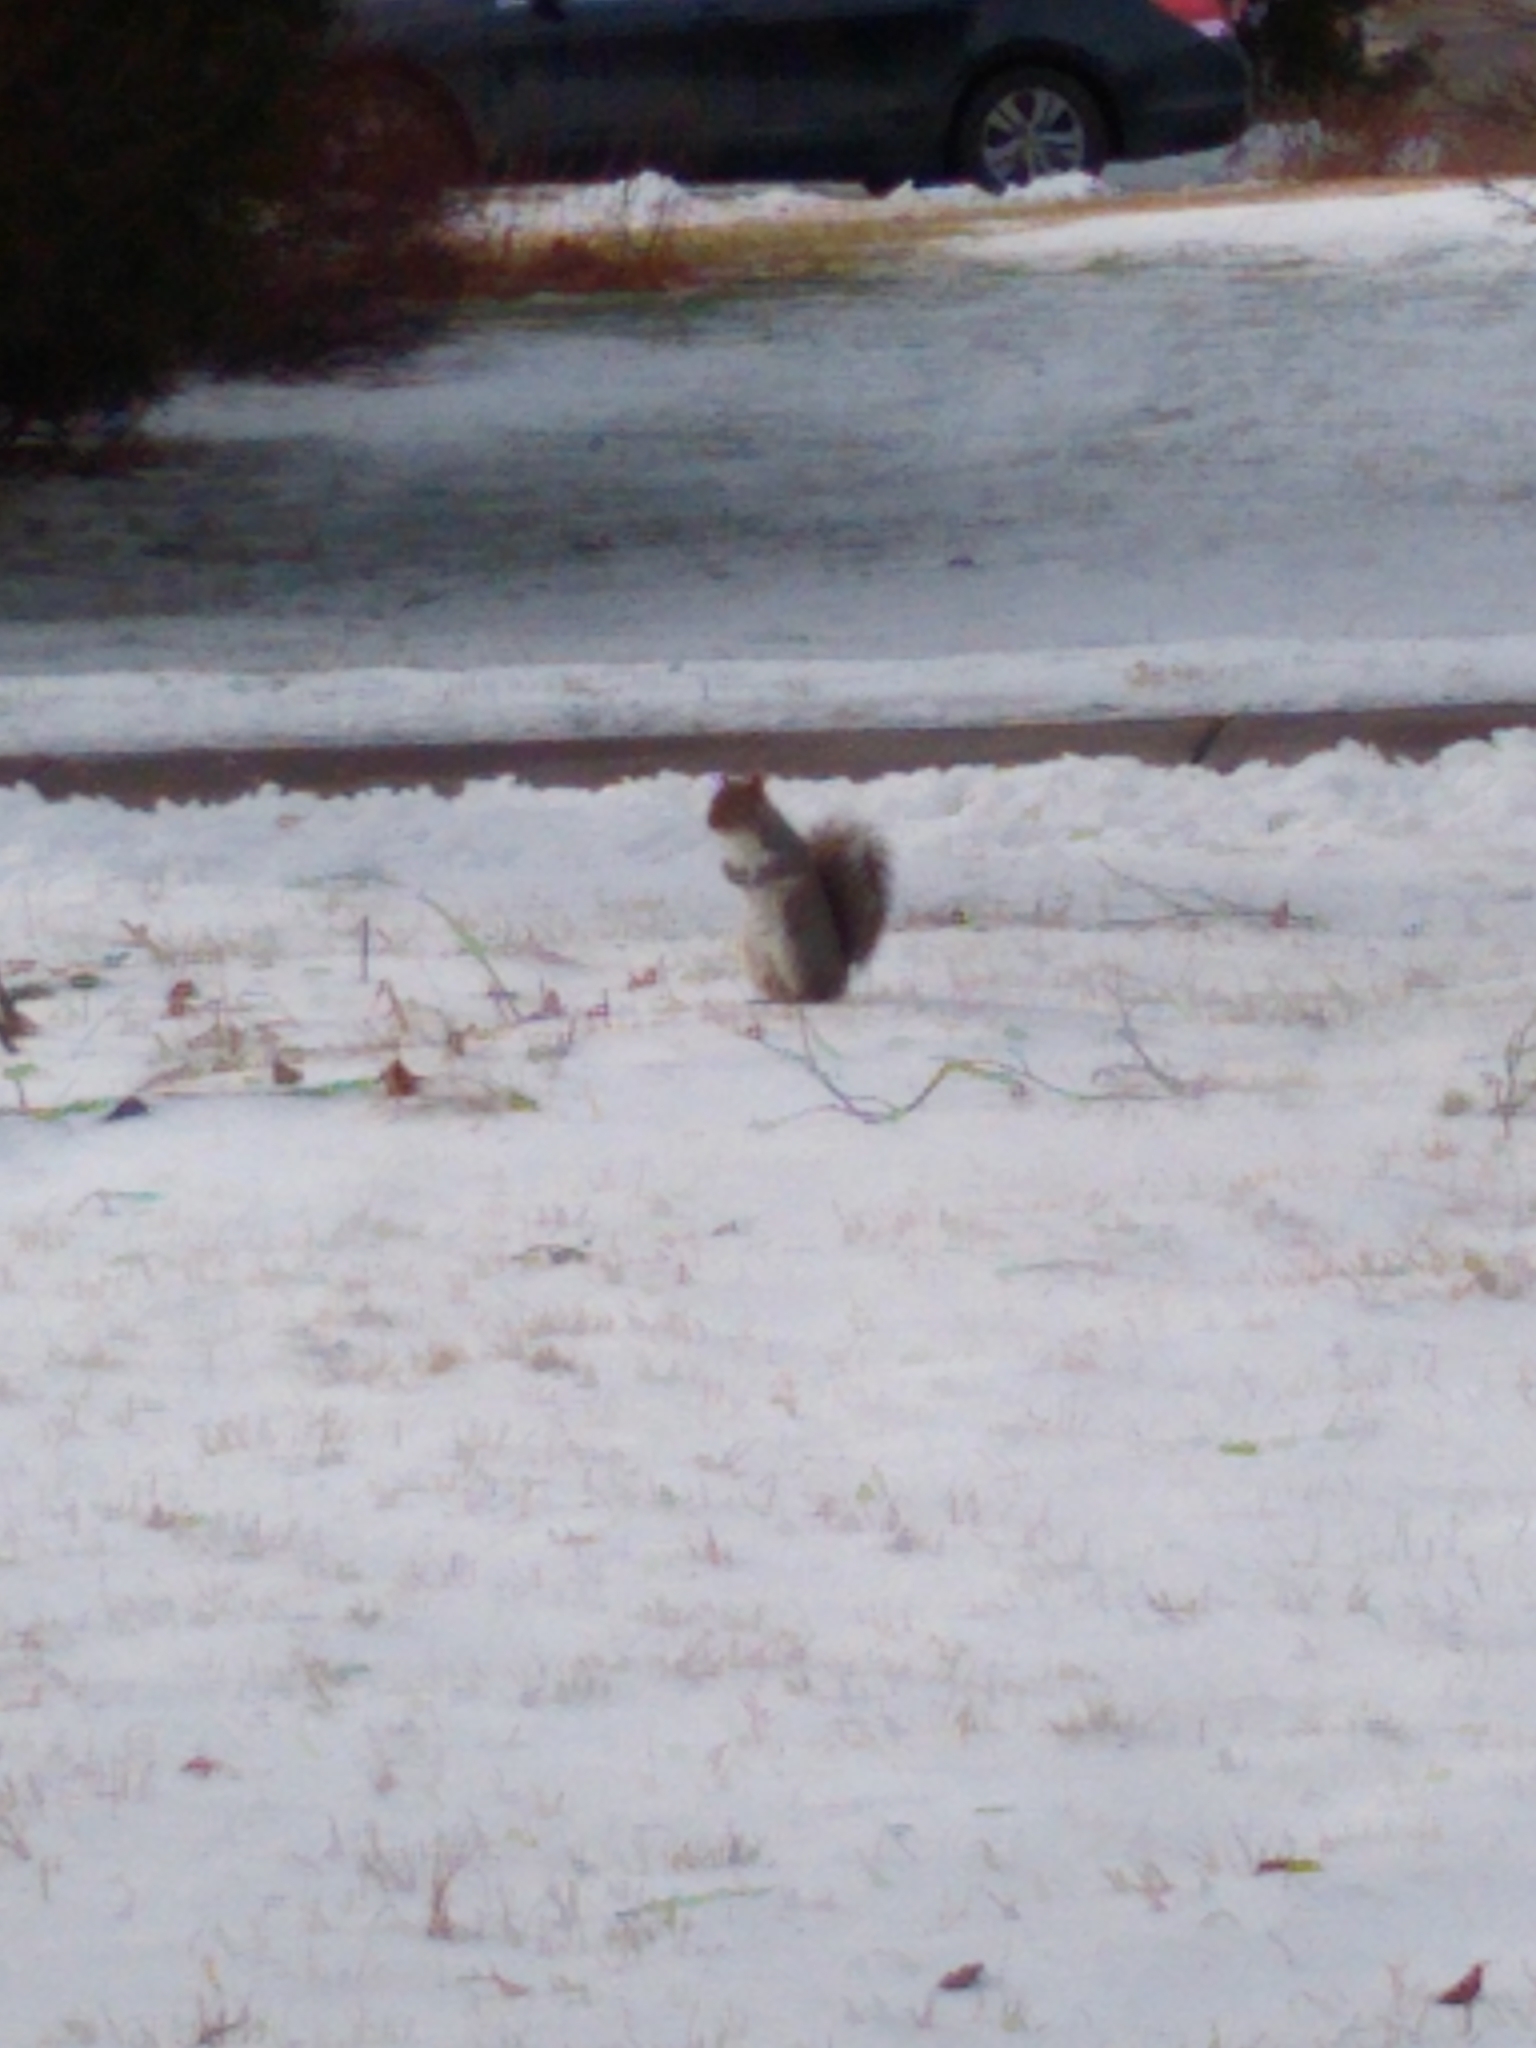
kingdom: Animalia
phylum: Chordata
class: Mammalia
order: Rodentia
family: Sciuridae
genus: Sciurus
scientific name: Sciurus carolinensis
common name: Eastern gray squirrel
